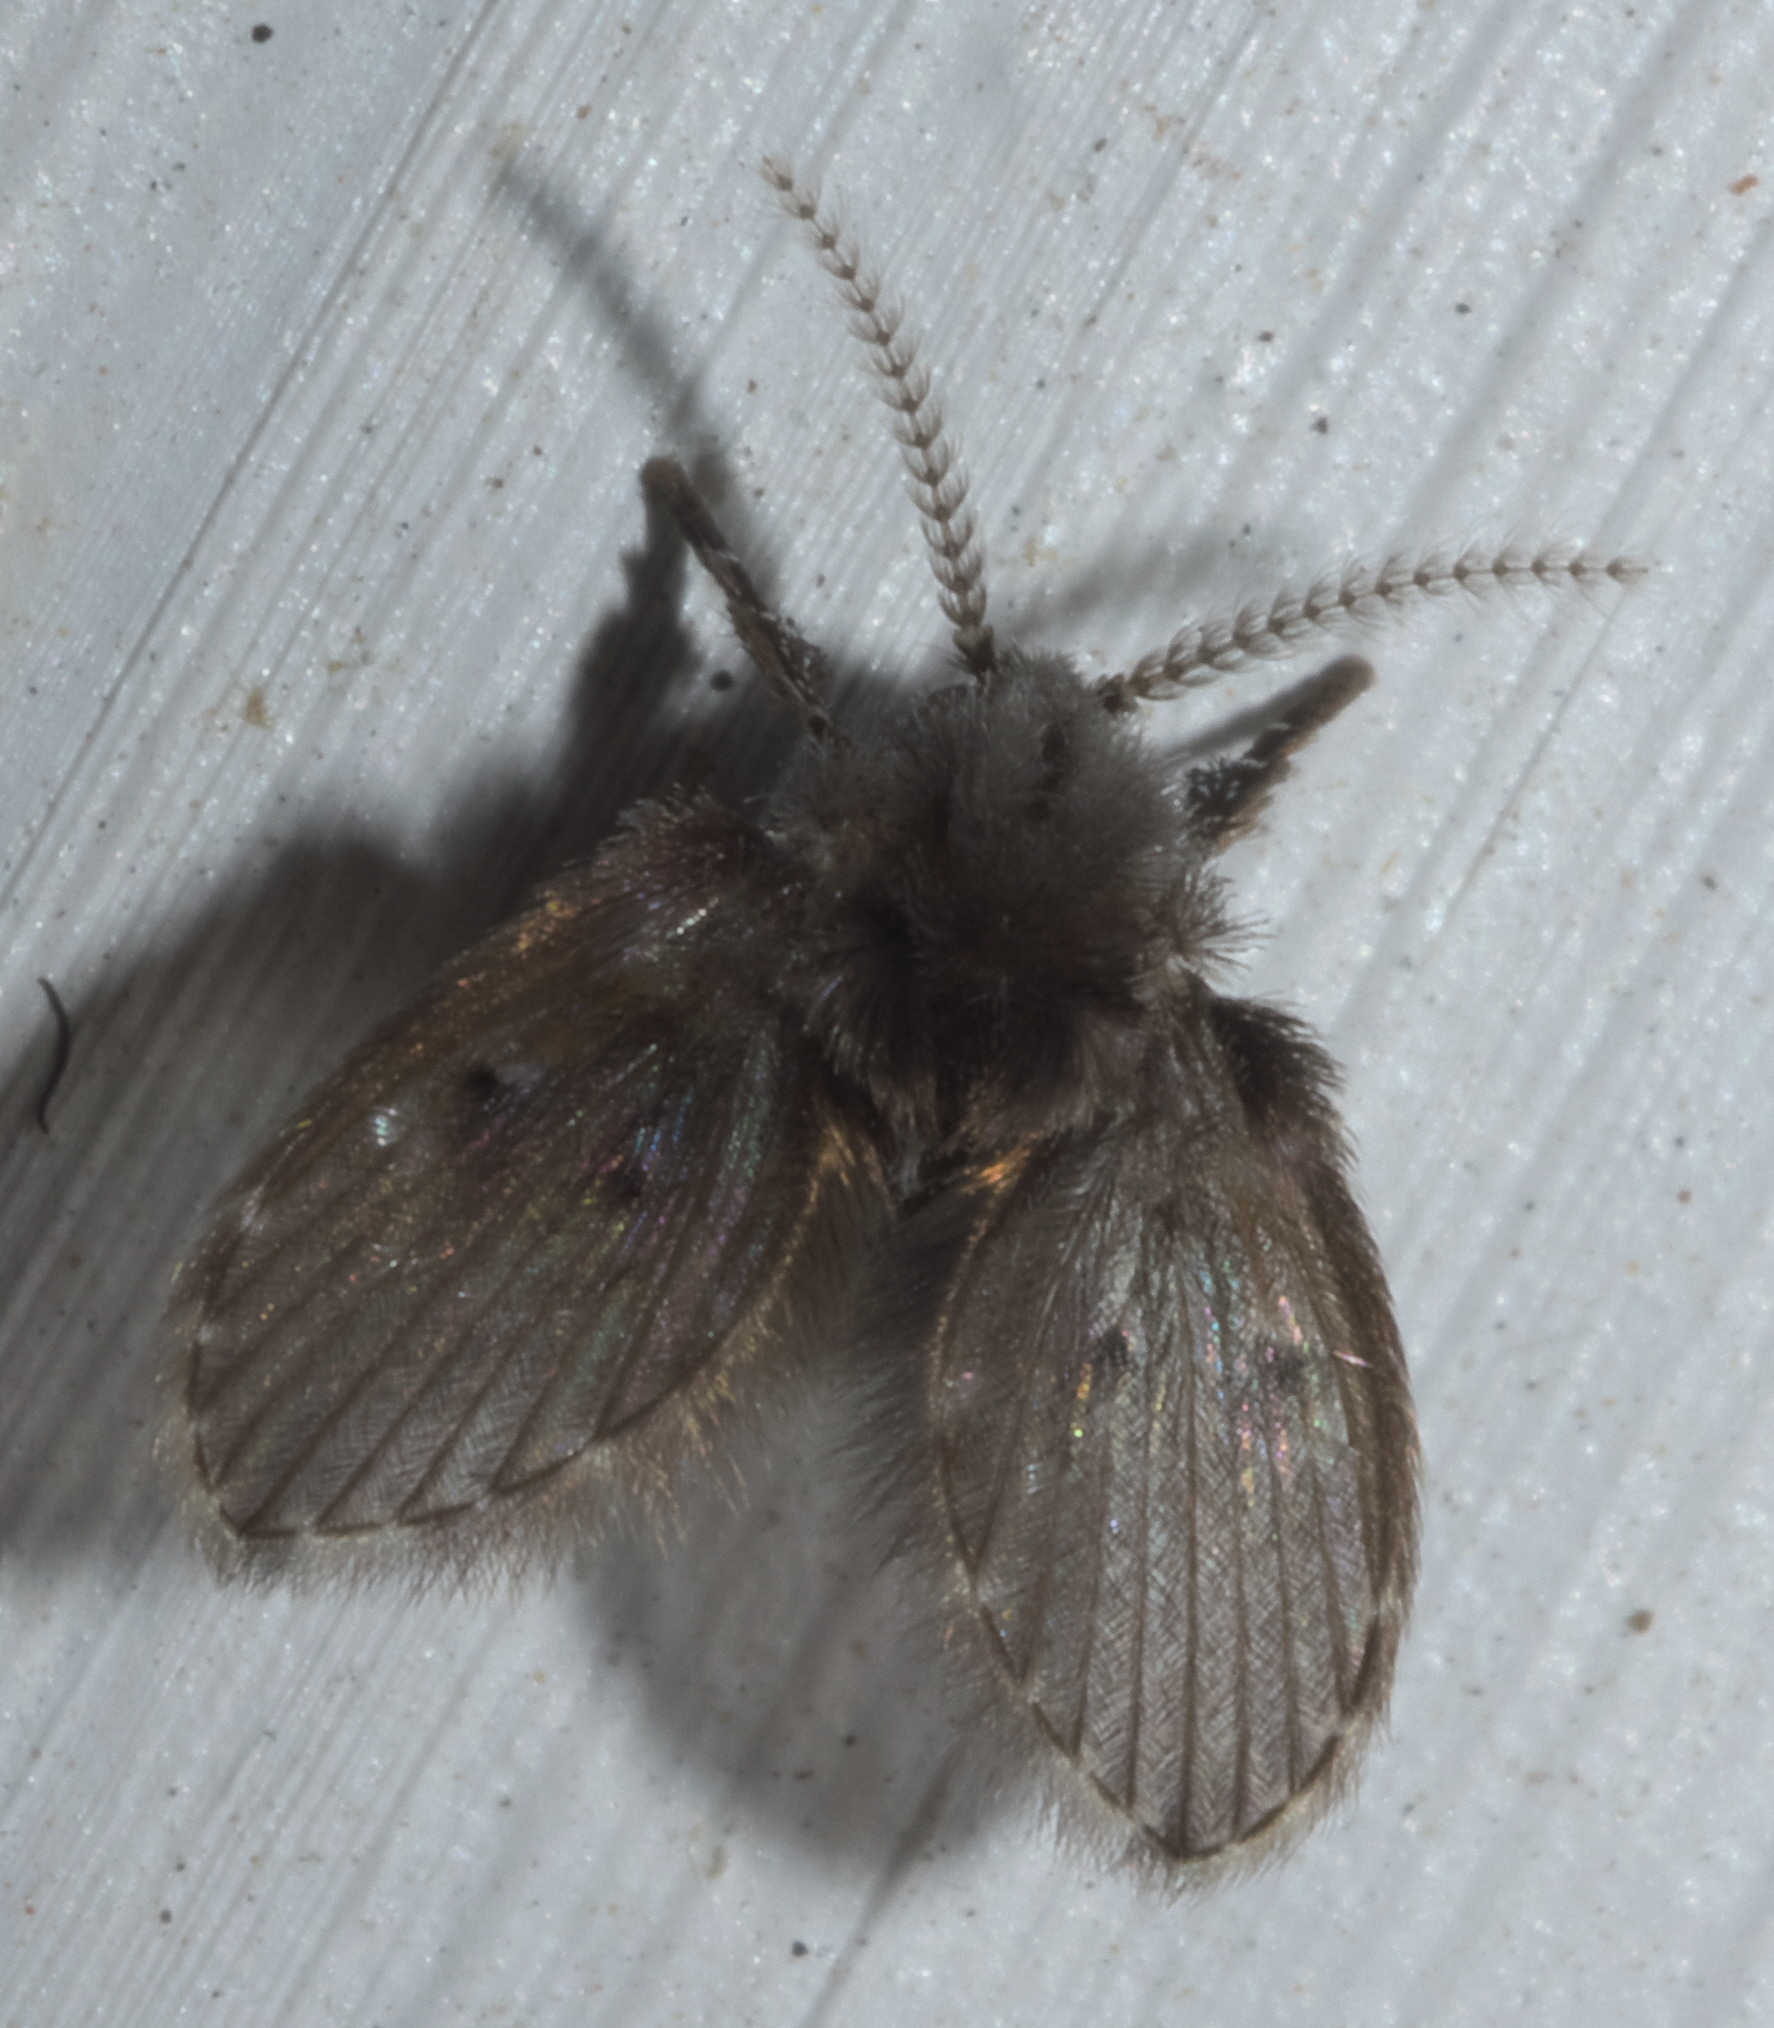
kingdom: Animalia
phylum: Arthropoda
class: Insecta
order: Diptera
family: Psychodidae
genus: Clogmia
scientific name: Clogmia albipunctatus
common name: White-spotted moth fly
